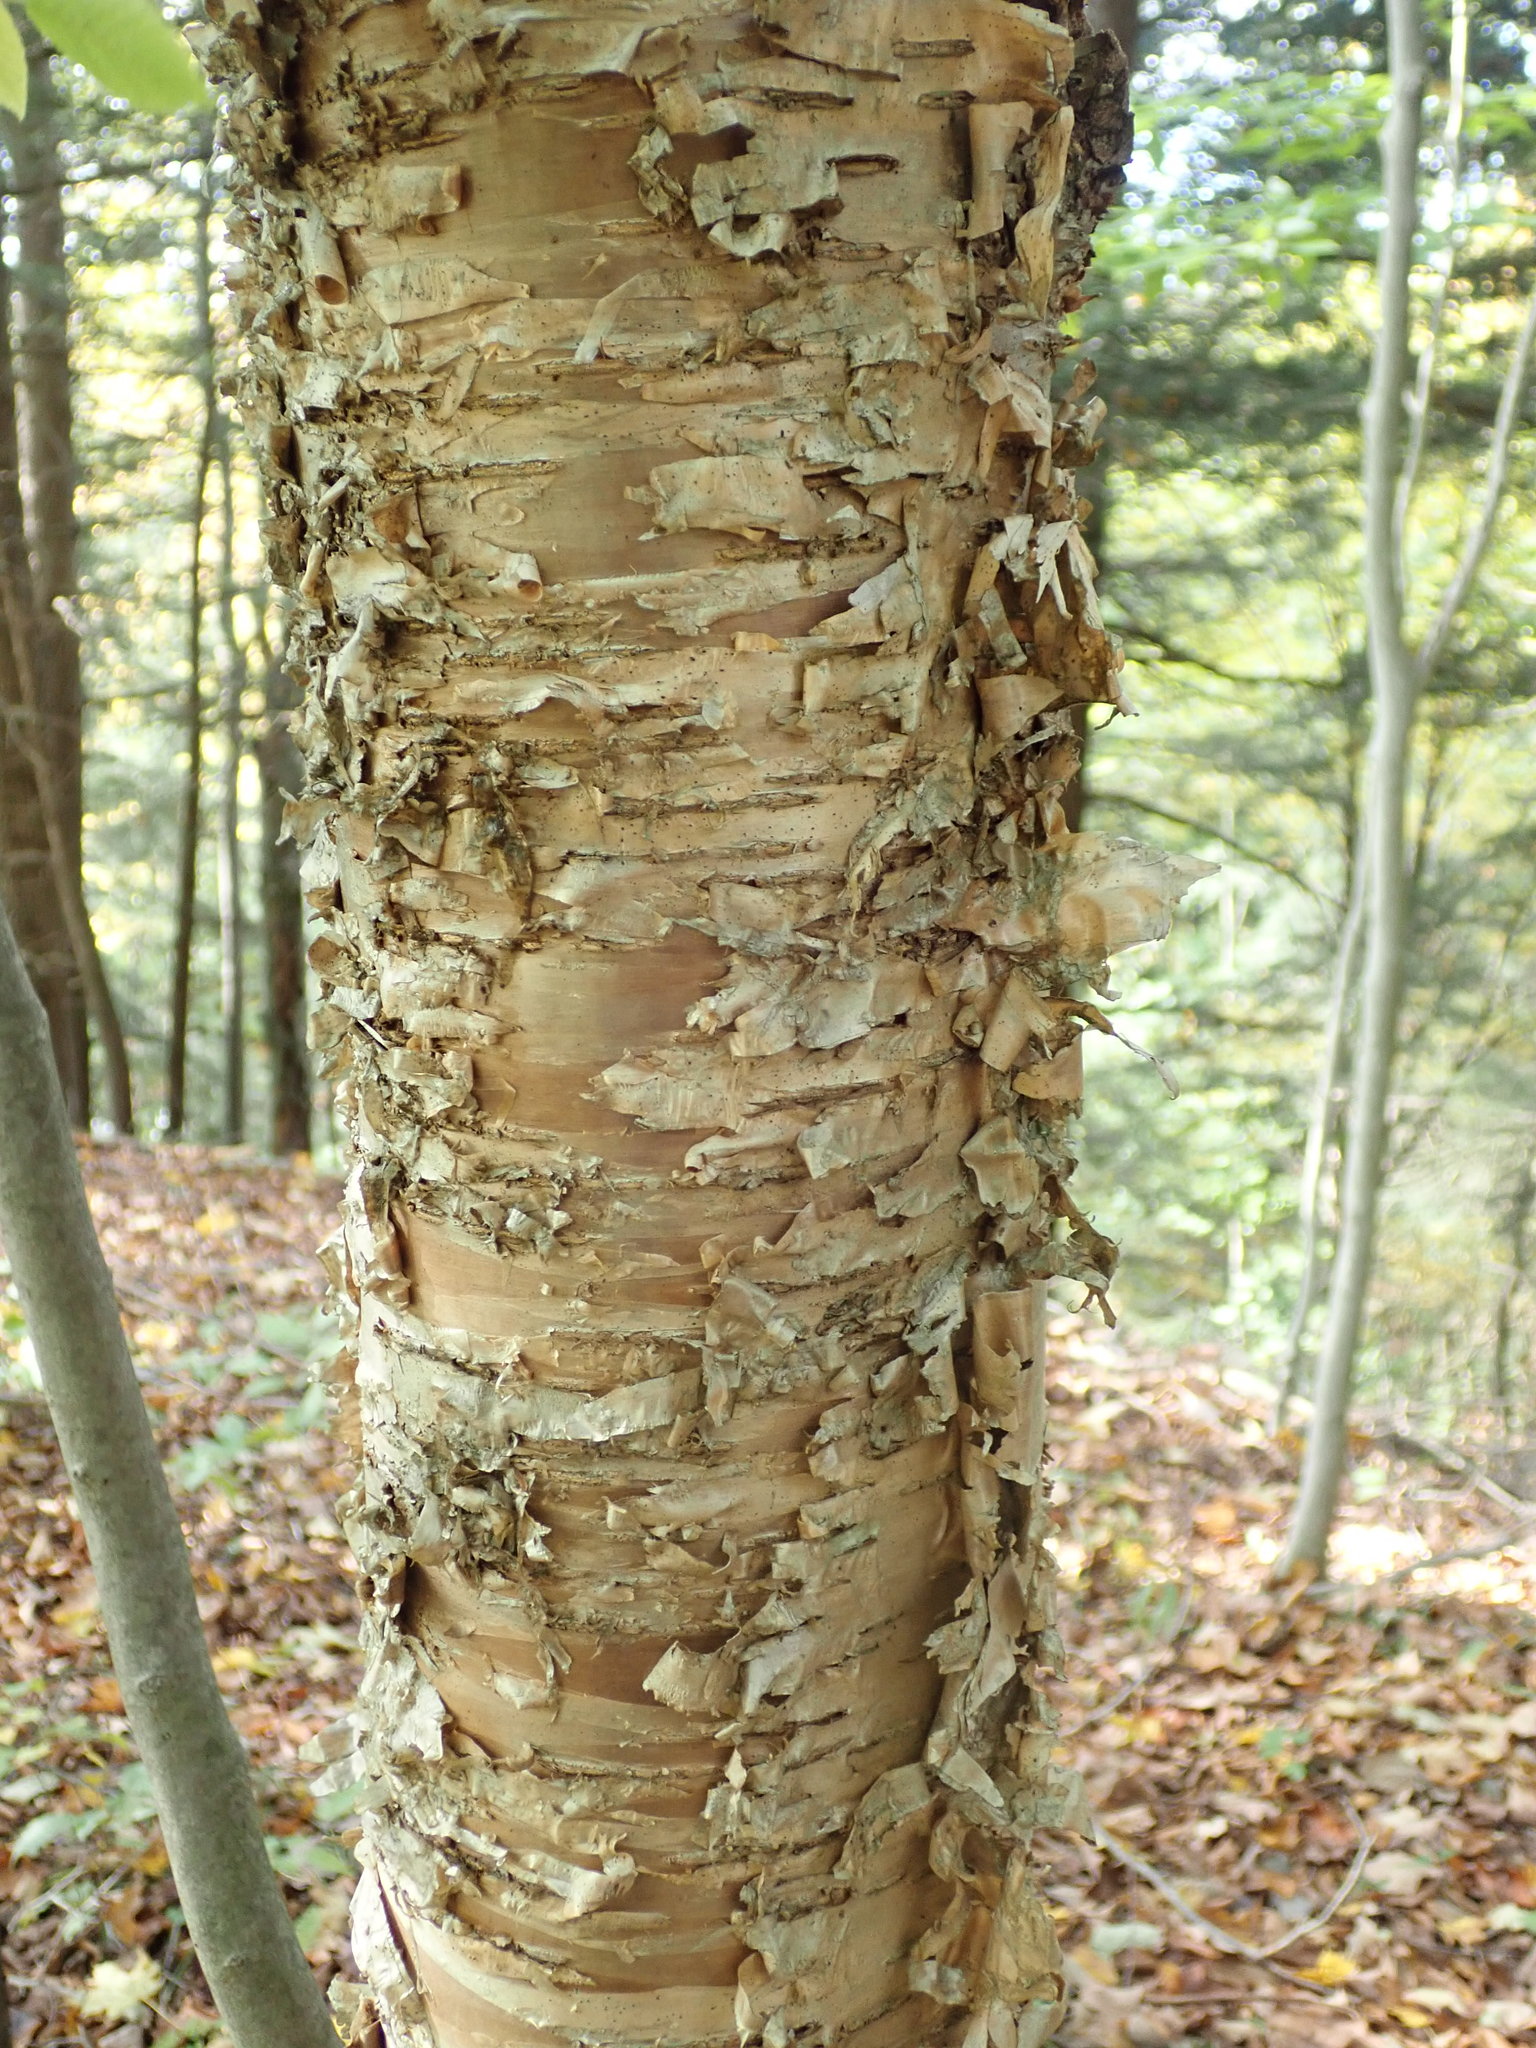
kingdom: Plantae
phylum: Tracheophyta
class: Magnoliopsida
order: Fagales
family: Betulaceae
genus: Betula
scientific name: Betula alleghaniensis
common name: Yellow birch
